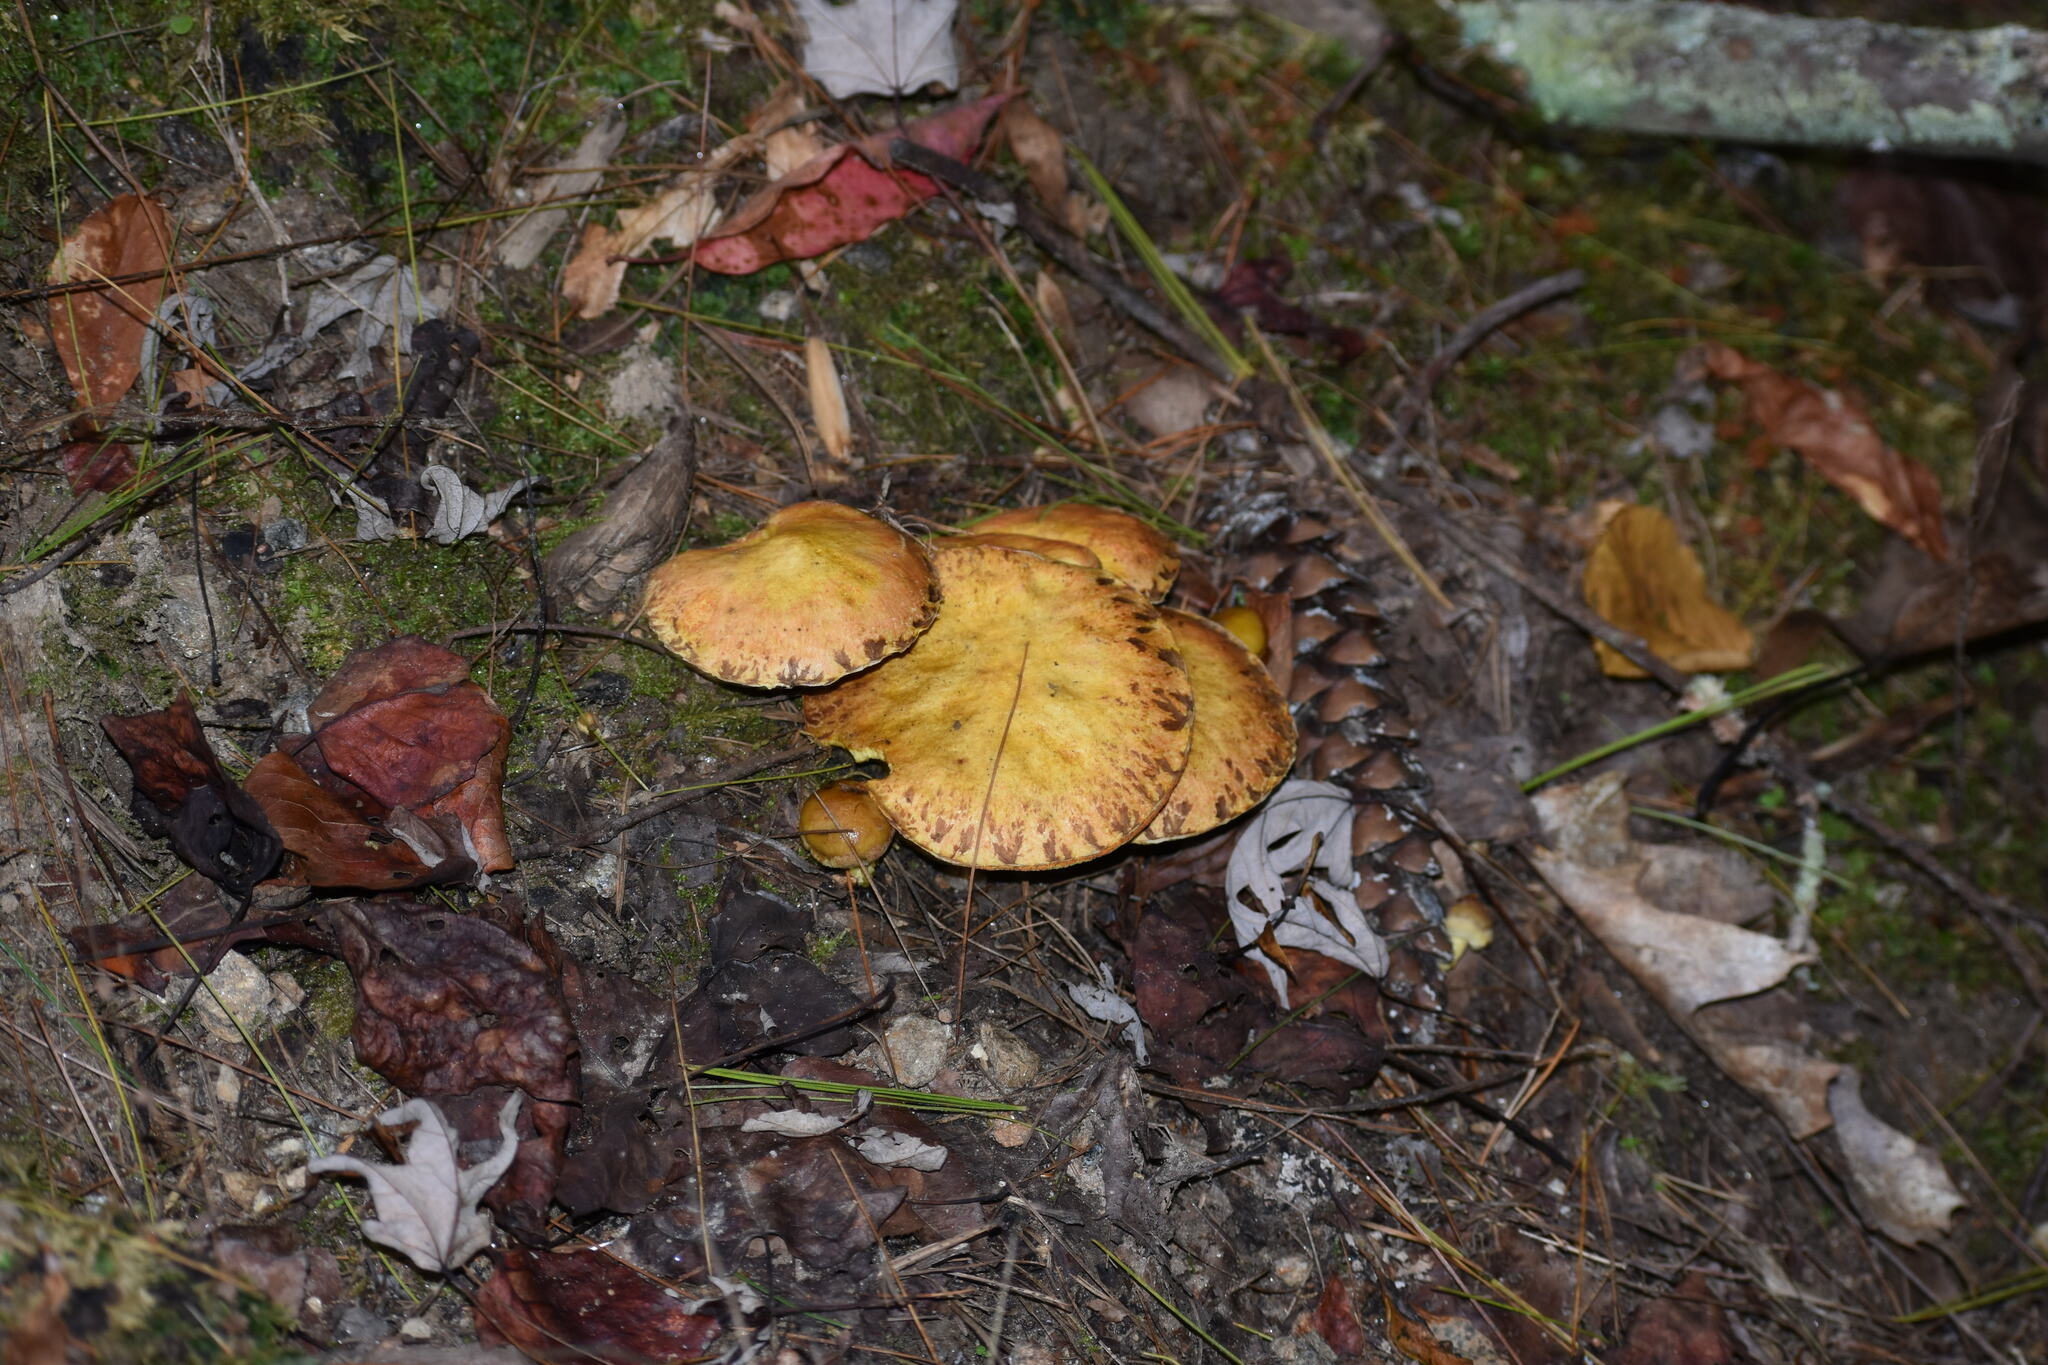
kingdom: Fungi
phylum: Basidiomycota
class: Agaricomycetes
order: Boletales
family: Suillaceae
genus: Suillus
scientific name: Suillus americanus
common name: Chicken fat mushroom
